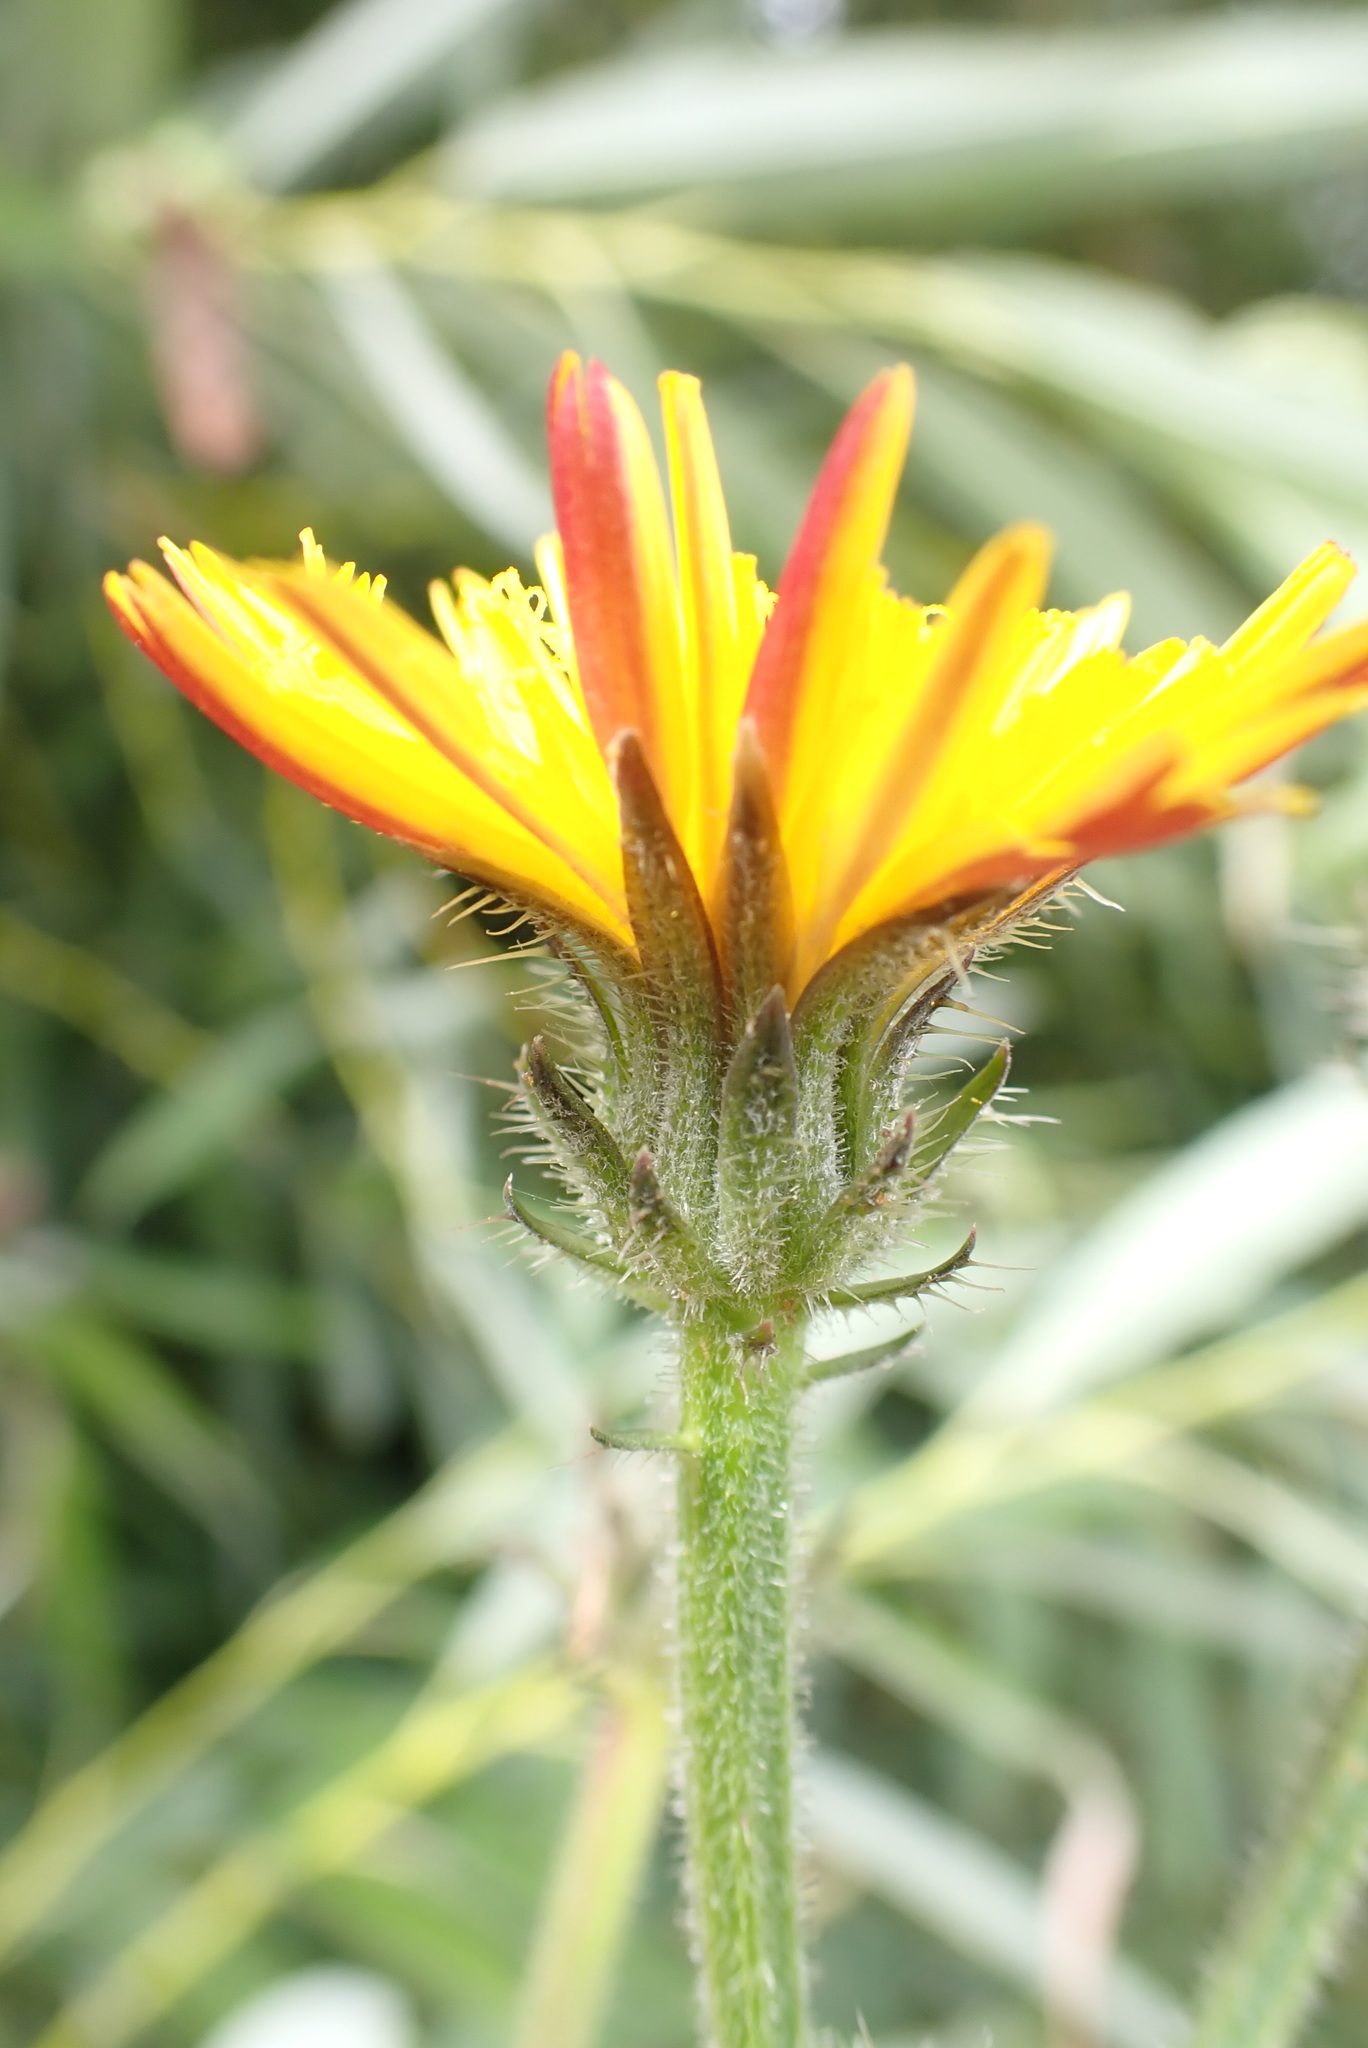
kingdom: Plantae
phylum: Tracheophyta
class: Magnoliopsida
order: Asterales
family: Asteraceae
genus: Picris
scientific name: Picris hieracioides
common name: Hawkweed oxtongue
